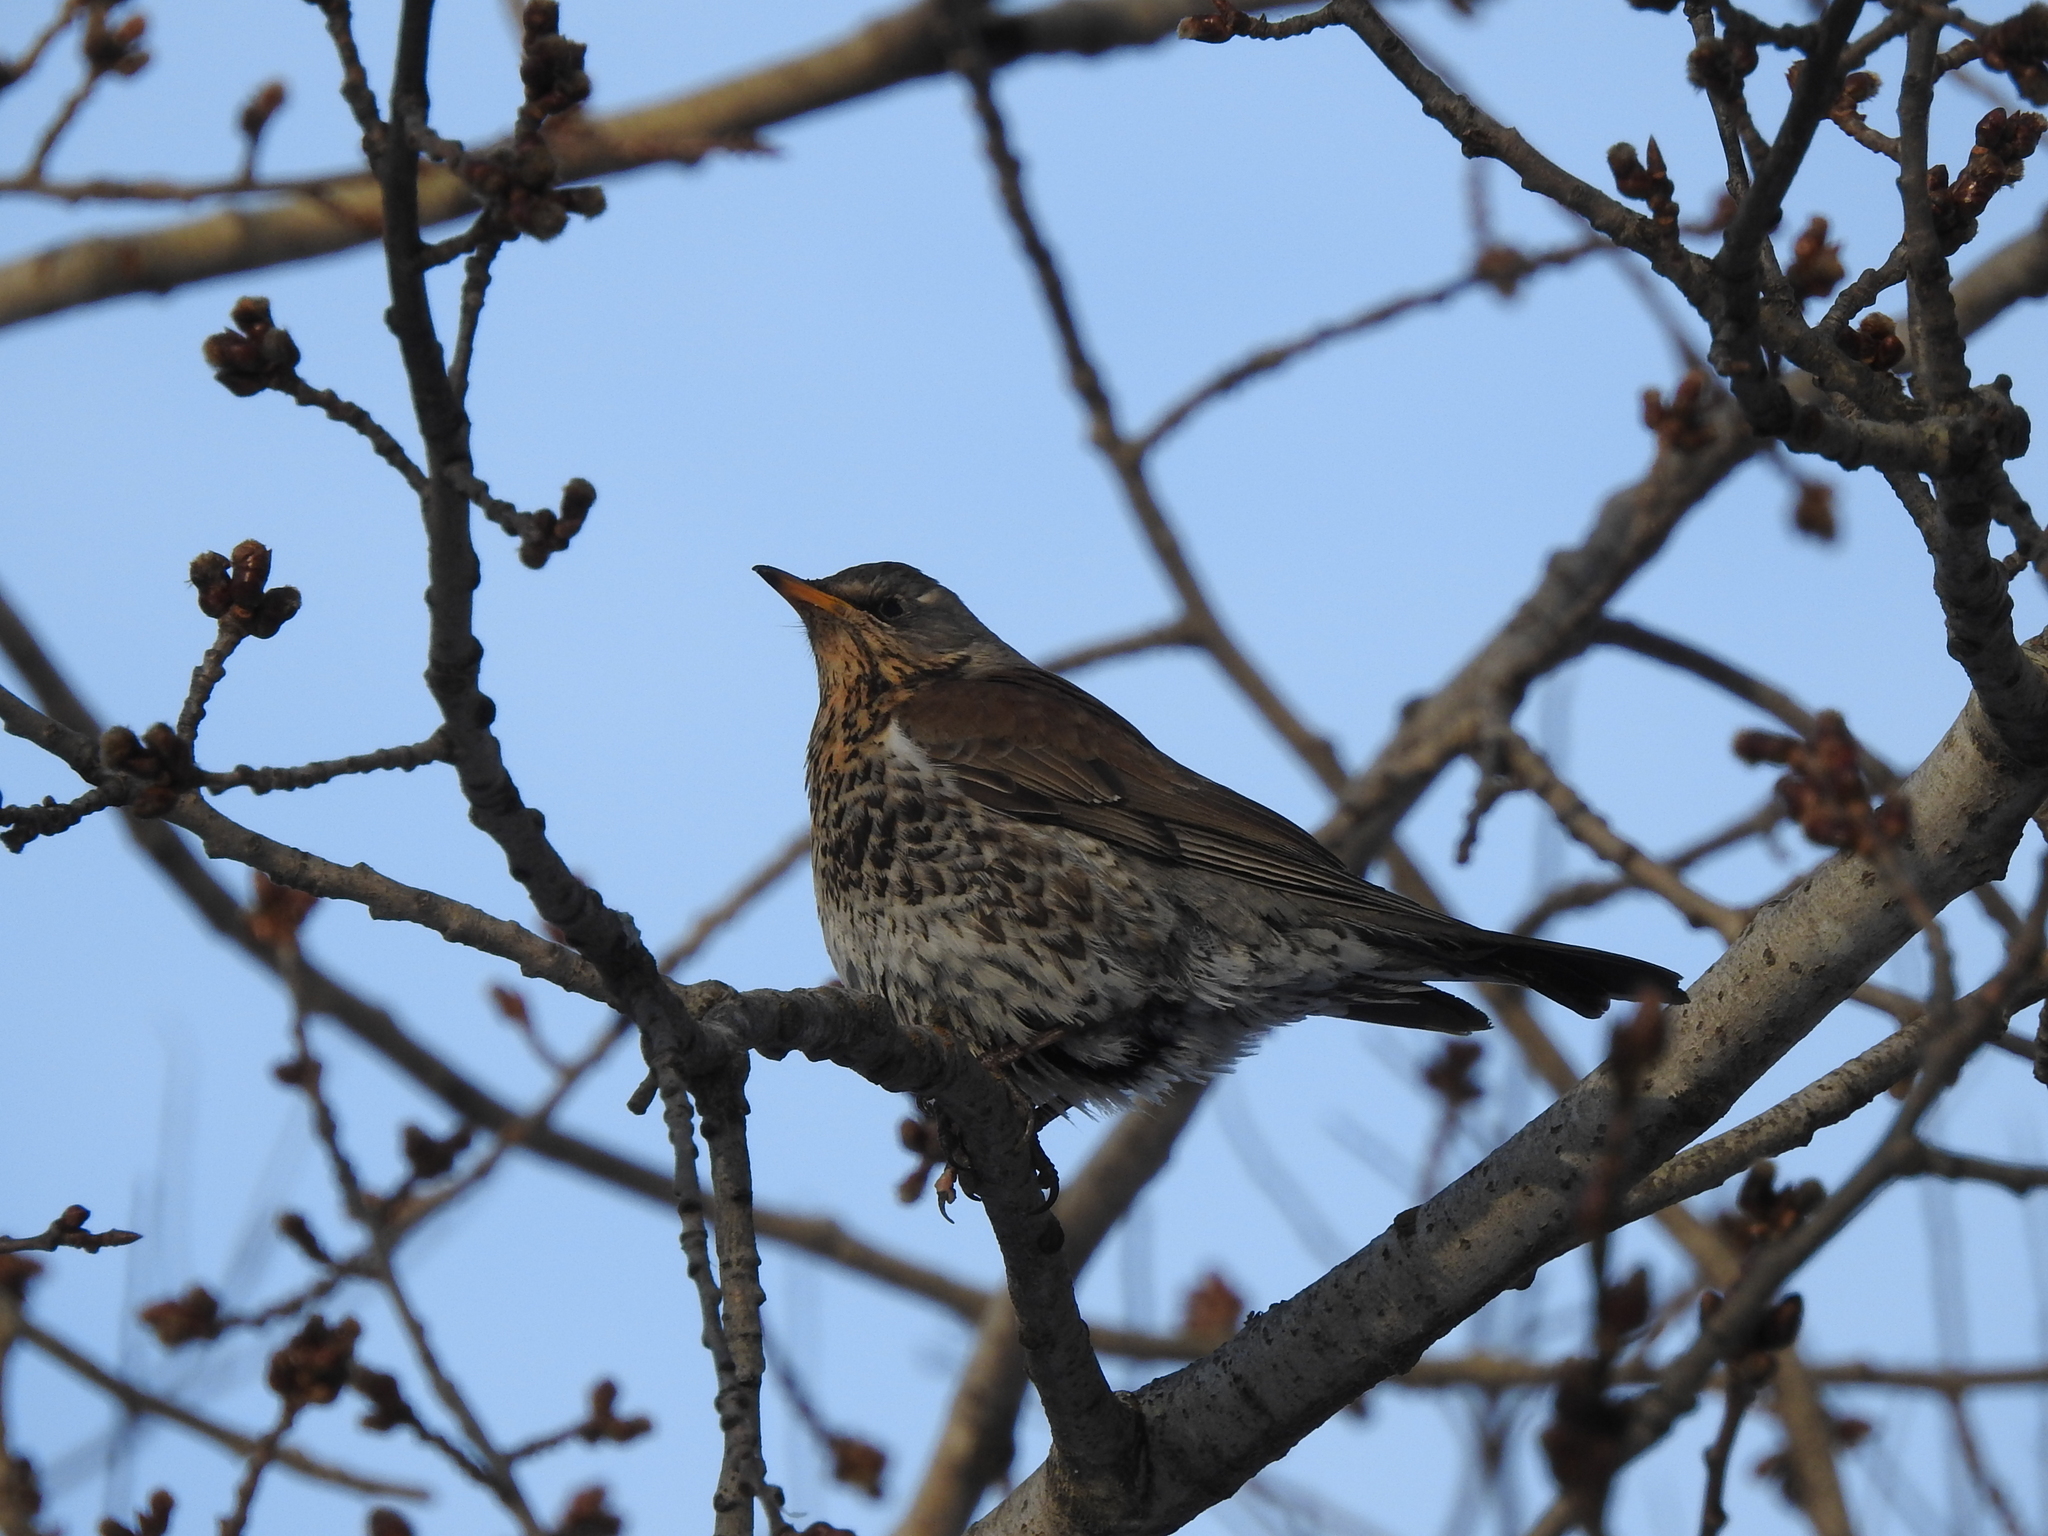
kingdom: Animalia
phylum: Chordata
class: Aves
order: Passeriformes
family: Turdidae
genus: Turdus
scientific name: Turdus pilaris
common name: Fieldfare
